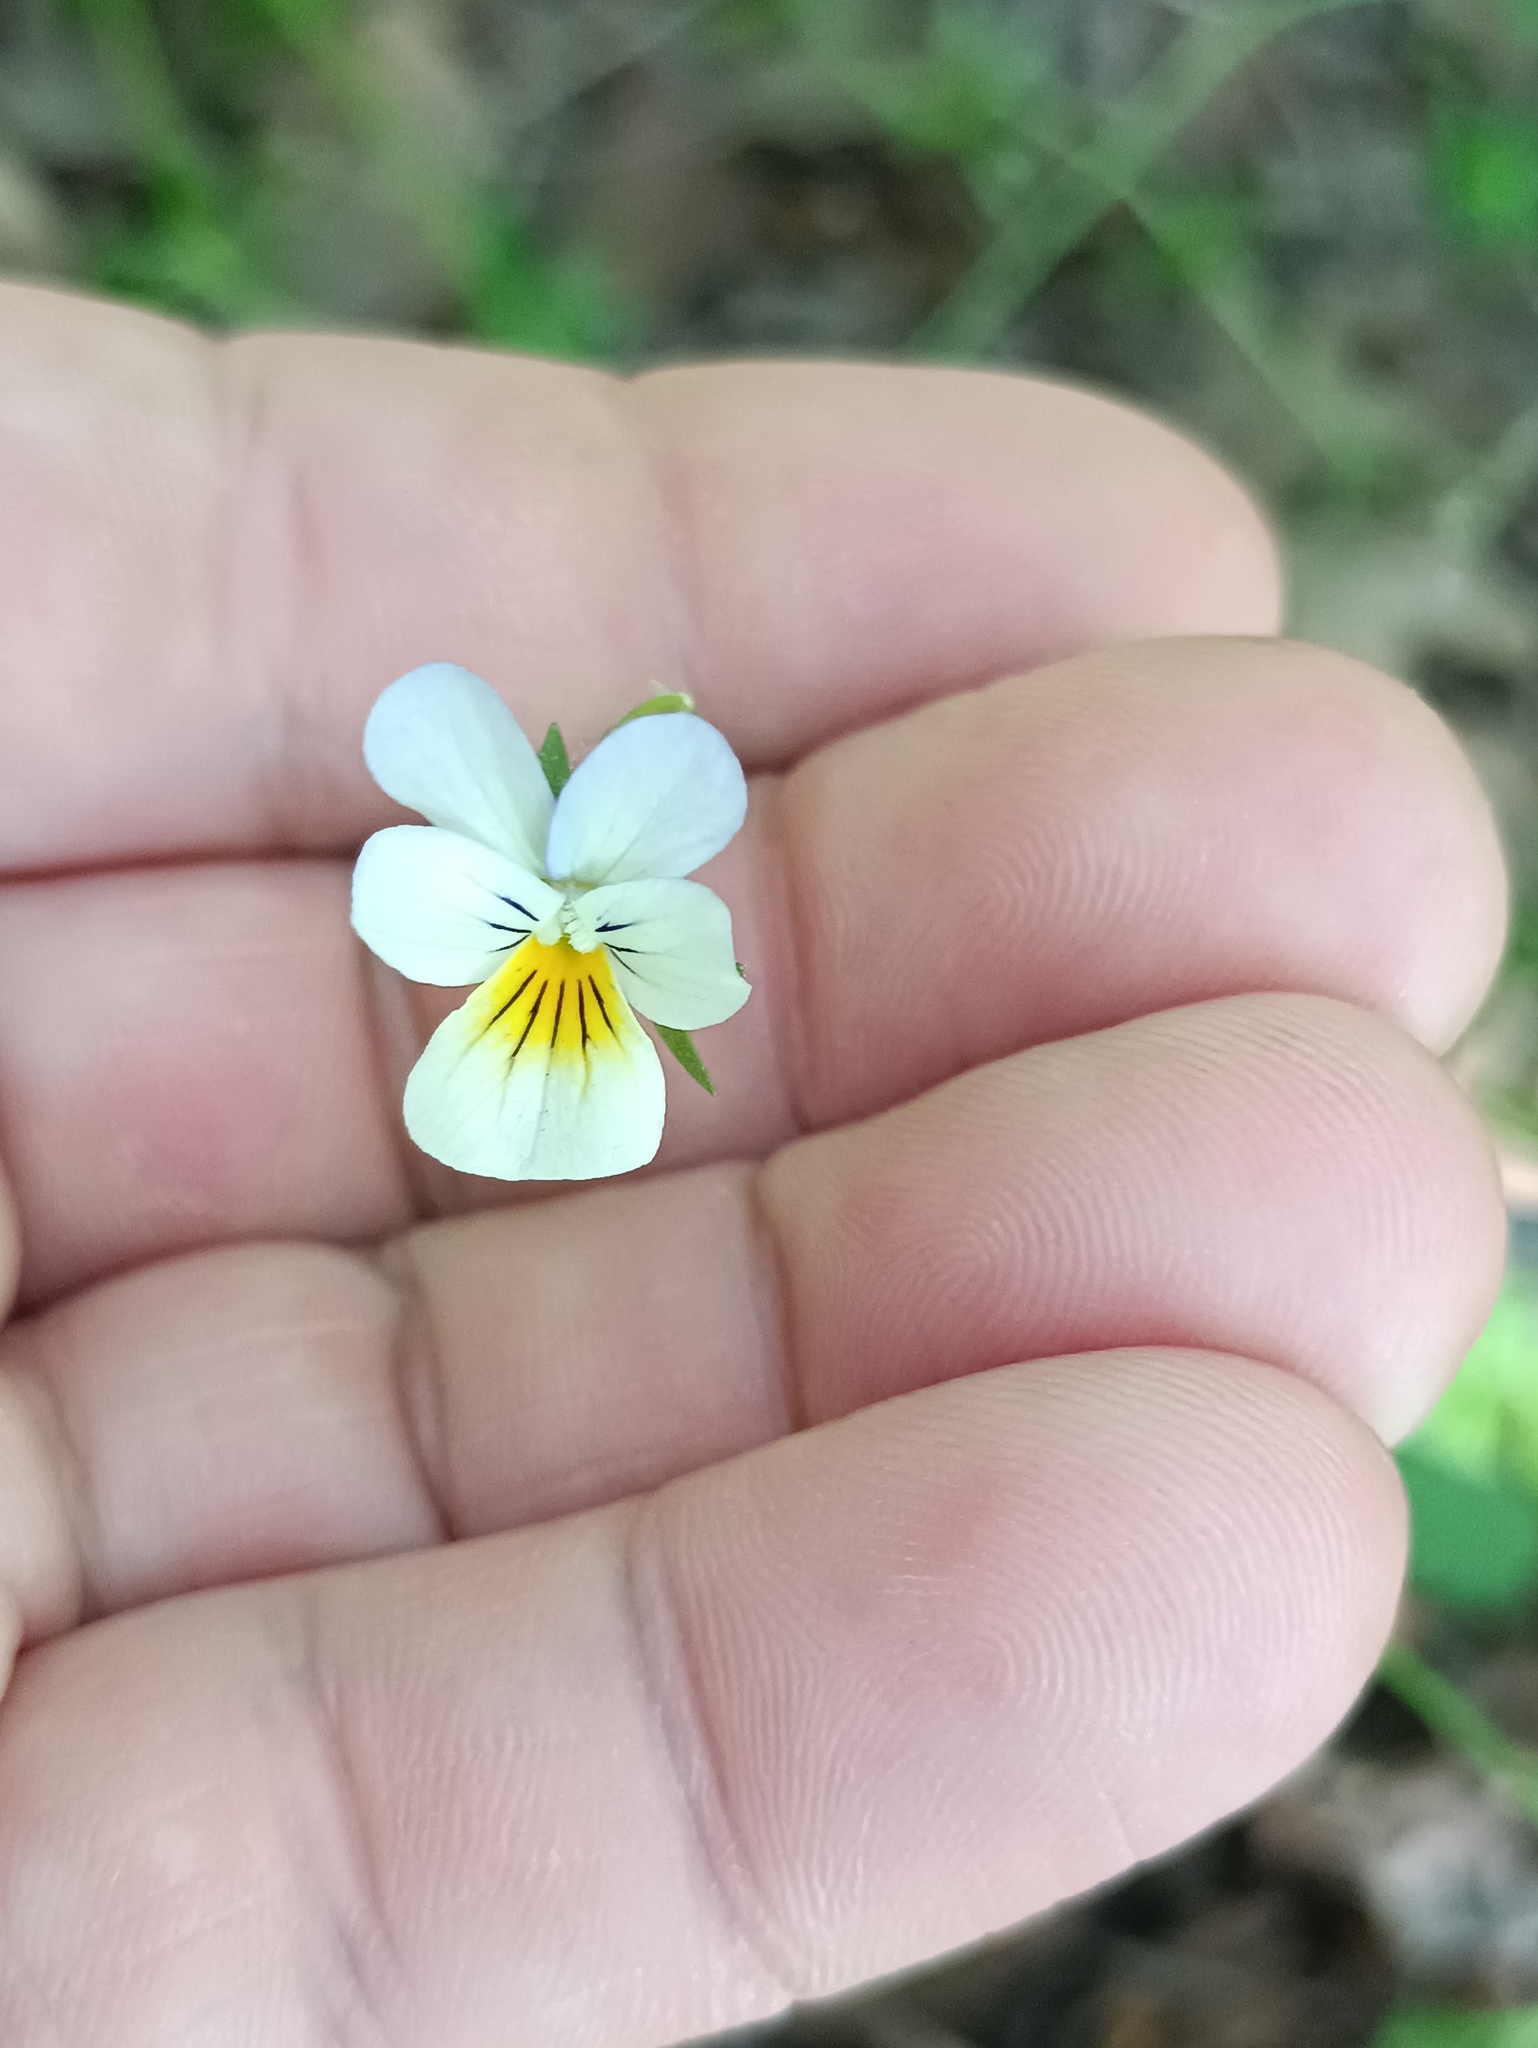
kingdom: Plantae
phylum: Tracheophyta
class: Magnoliopsida
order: Malpighiales
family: Violaceae
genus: Viola
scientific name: Viola arvensis
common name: Field pansy
